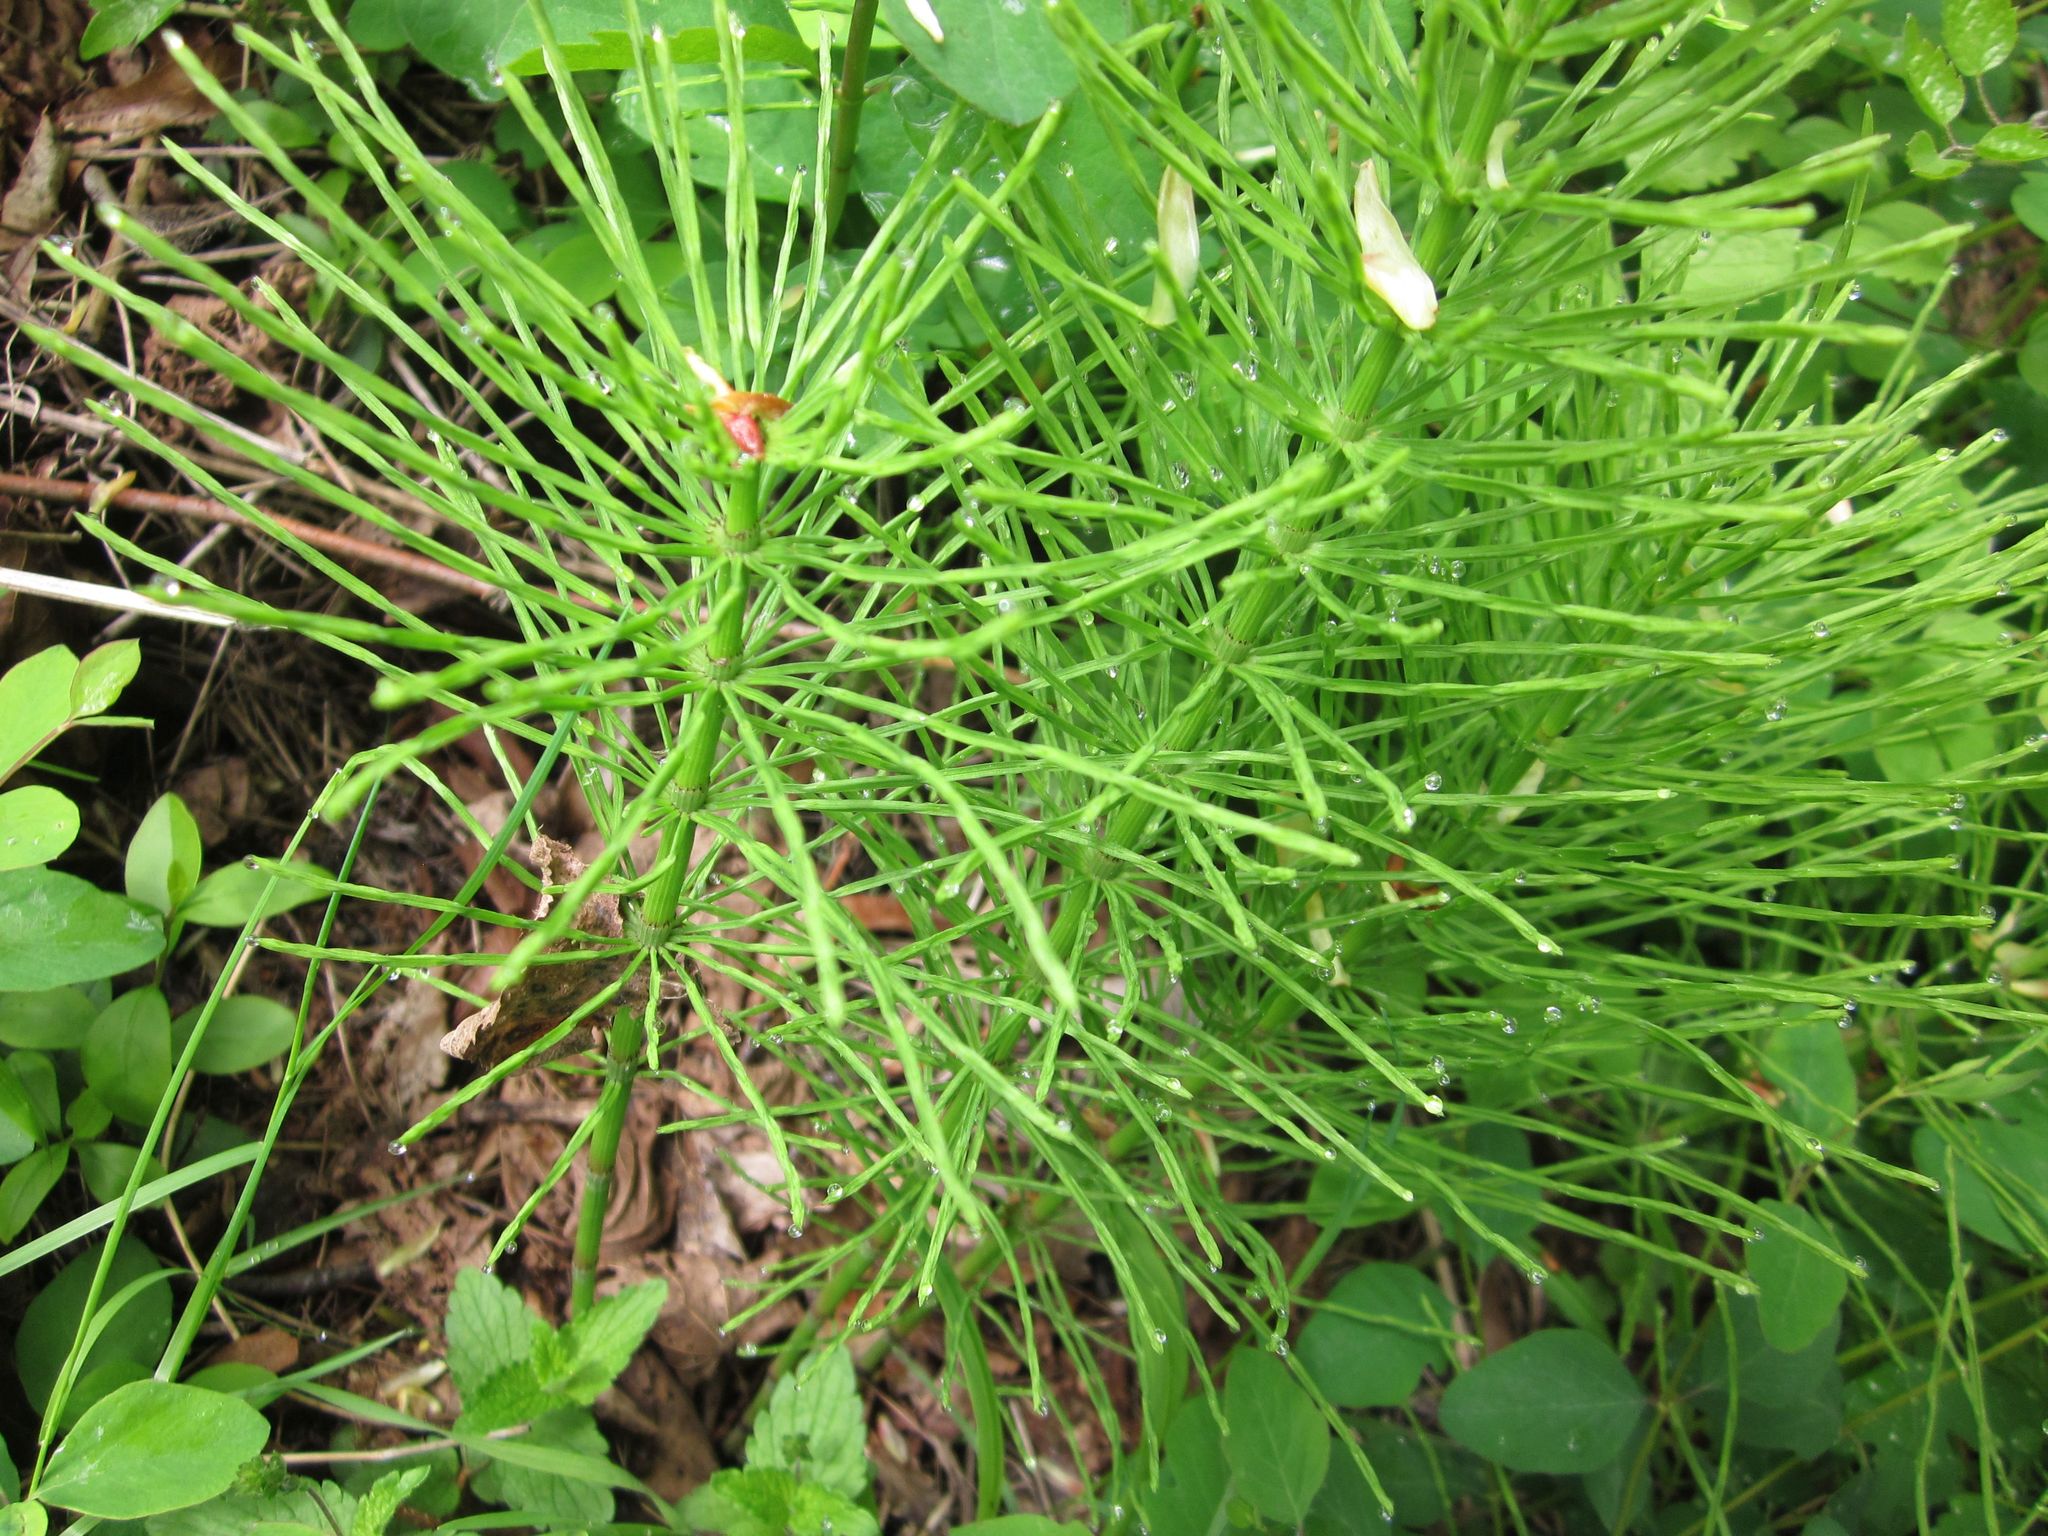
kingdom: Plantae
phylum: Tracheophyta
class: Polypodiopsida
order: Equisetales
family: Equisetaceae
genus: Equisetum
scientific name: Equisetum arvense
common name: Field horsetail
